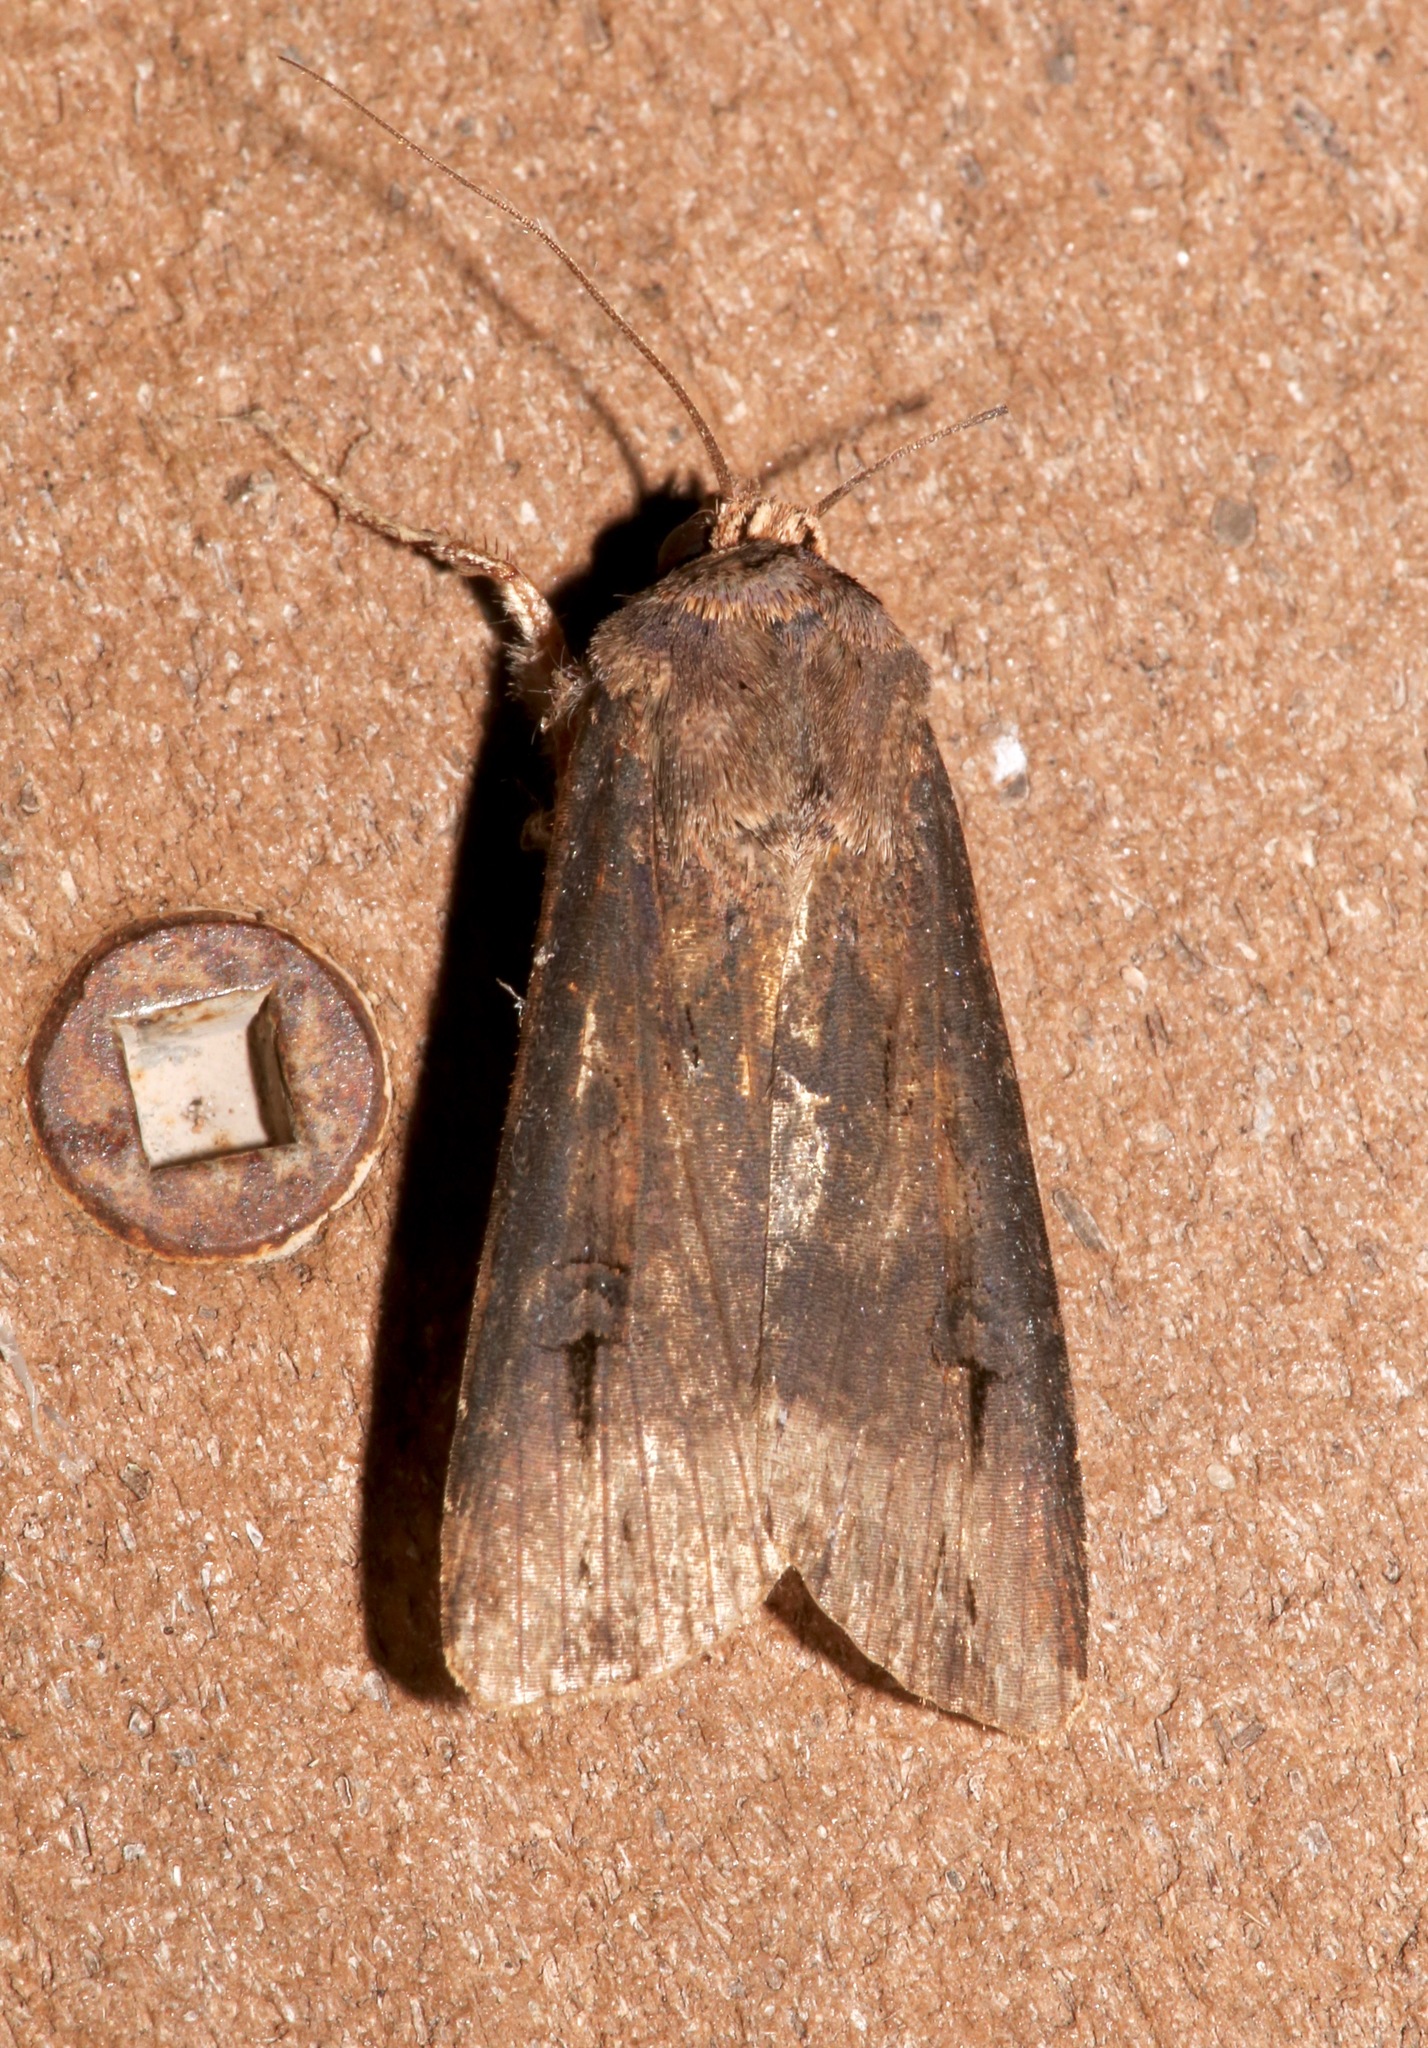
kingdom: Animalia
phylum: Arthropoda
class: Insecta
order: Lepidoptera
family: Noctuidae
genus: Agrotis
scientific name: Agrotis ipsilon
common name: Dark sword-grass
